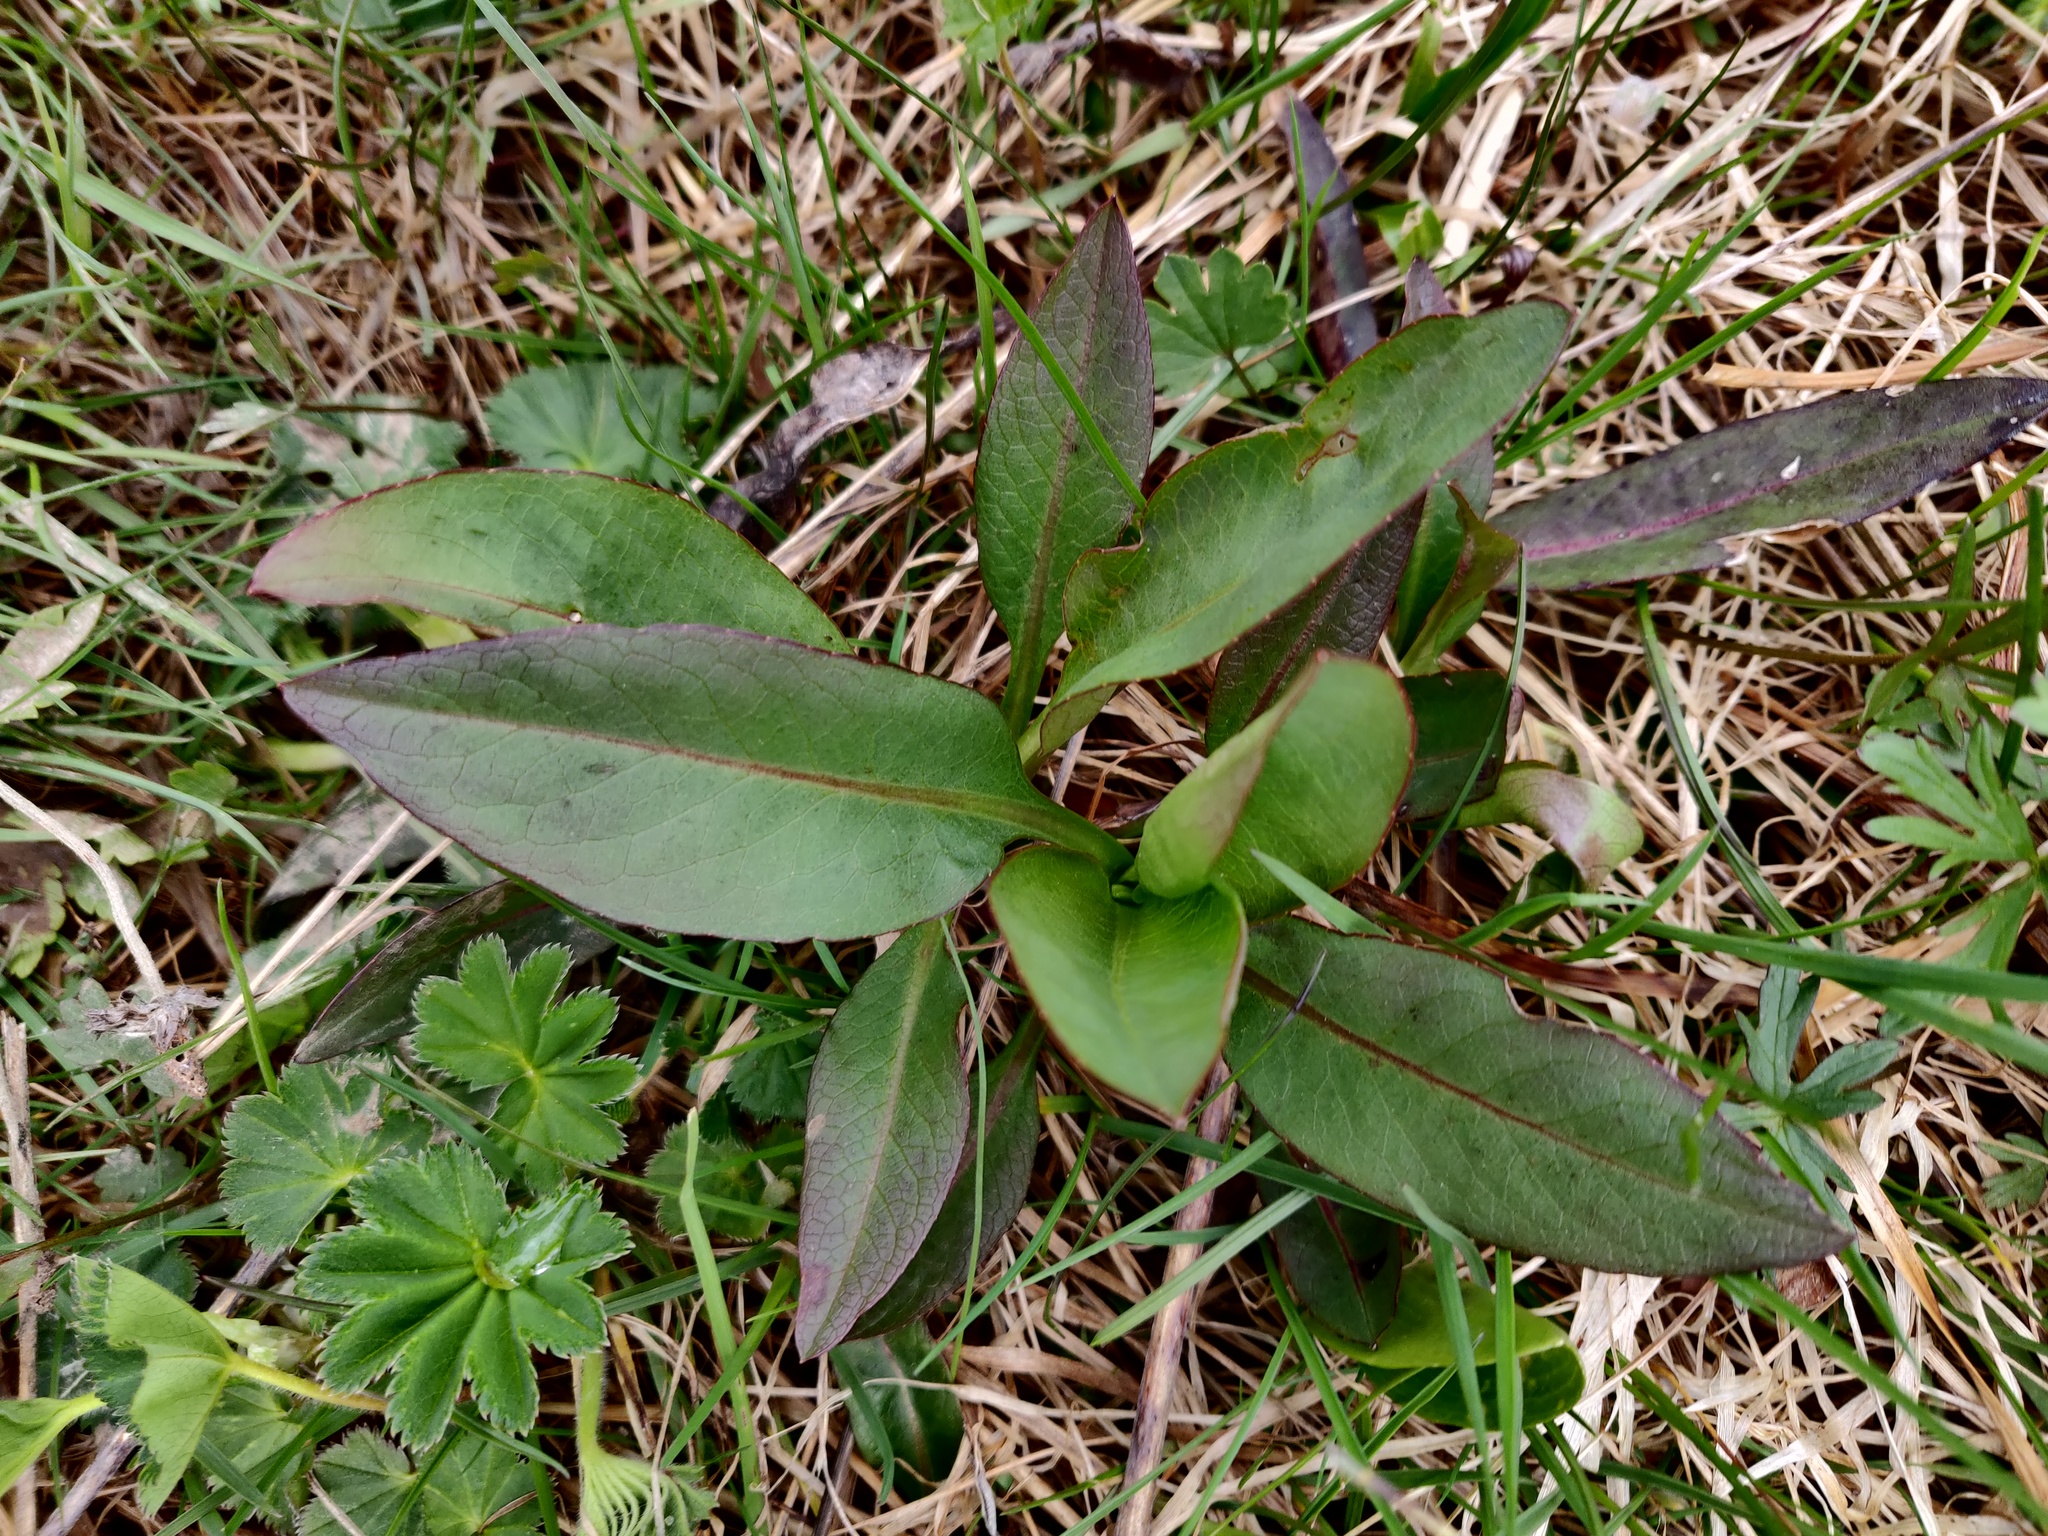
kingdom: Plantae
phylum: Tracheophyta
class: Magnoliopsida
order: Dipsacales
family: Caprifoliaceae
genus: Succisa
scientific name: Succisa pratensis
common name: Devil's-bit
